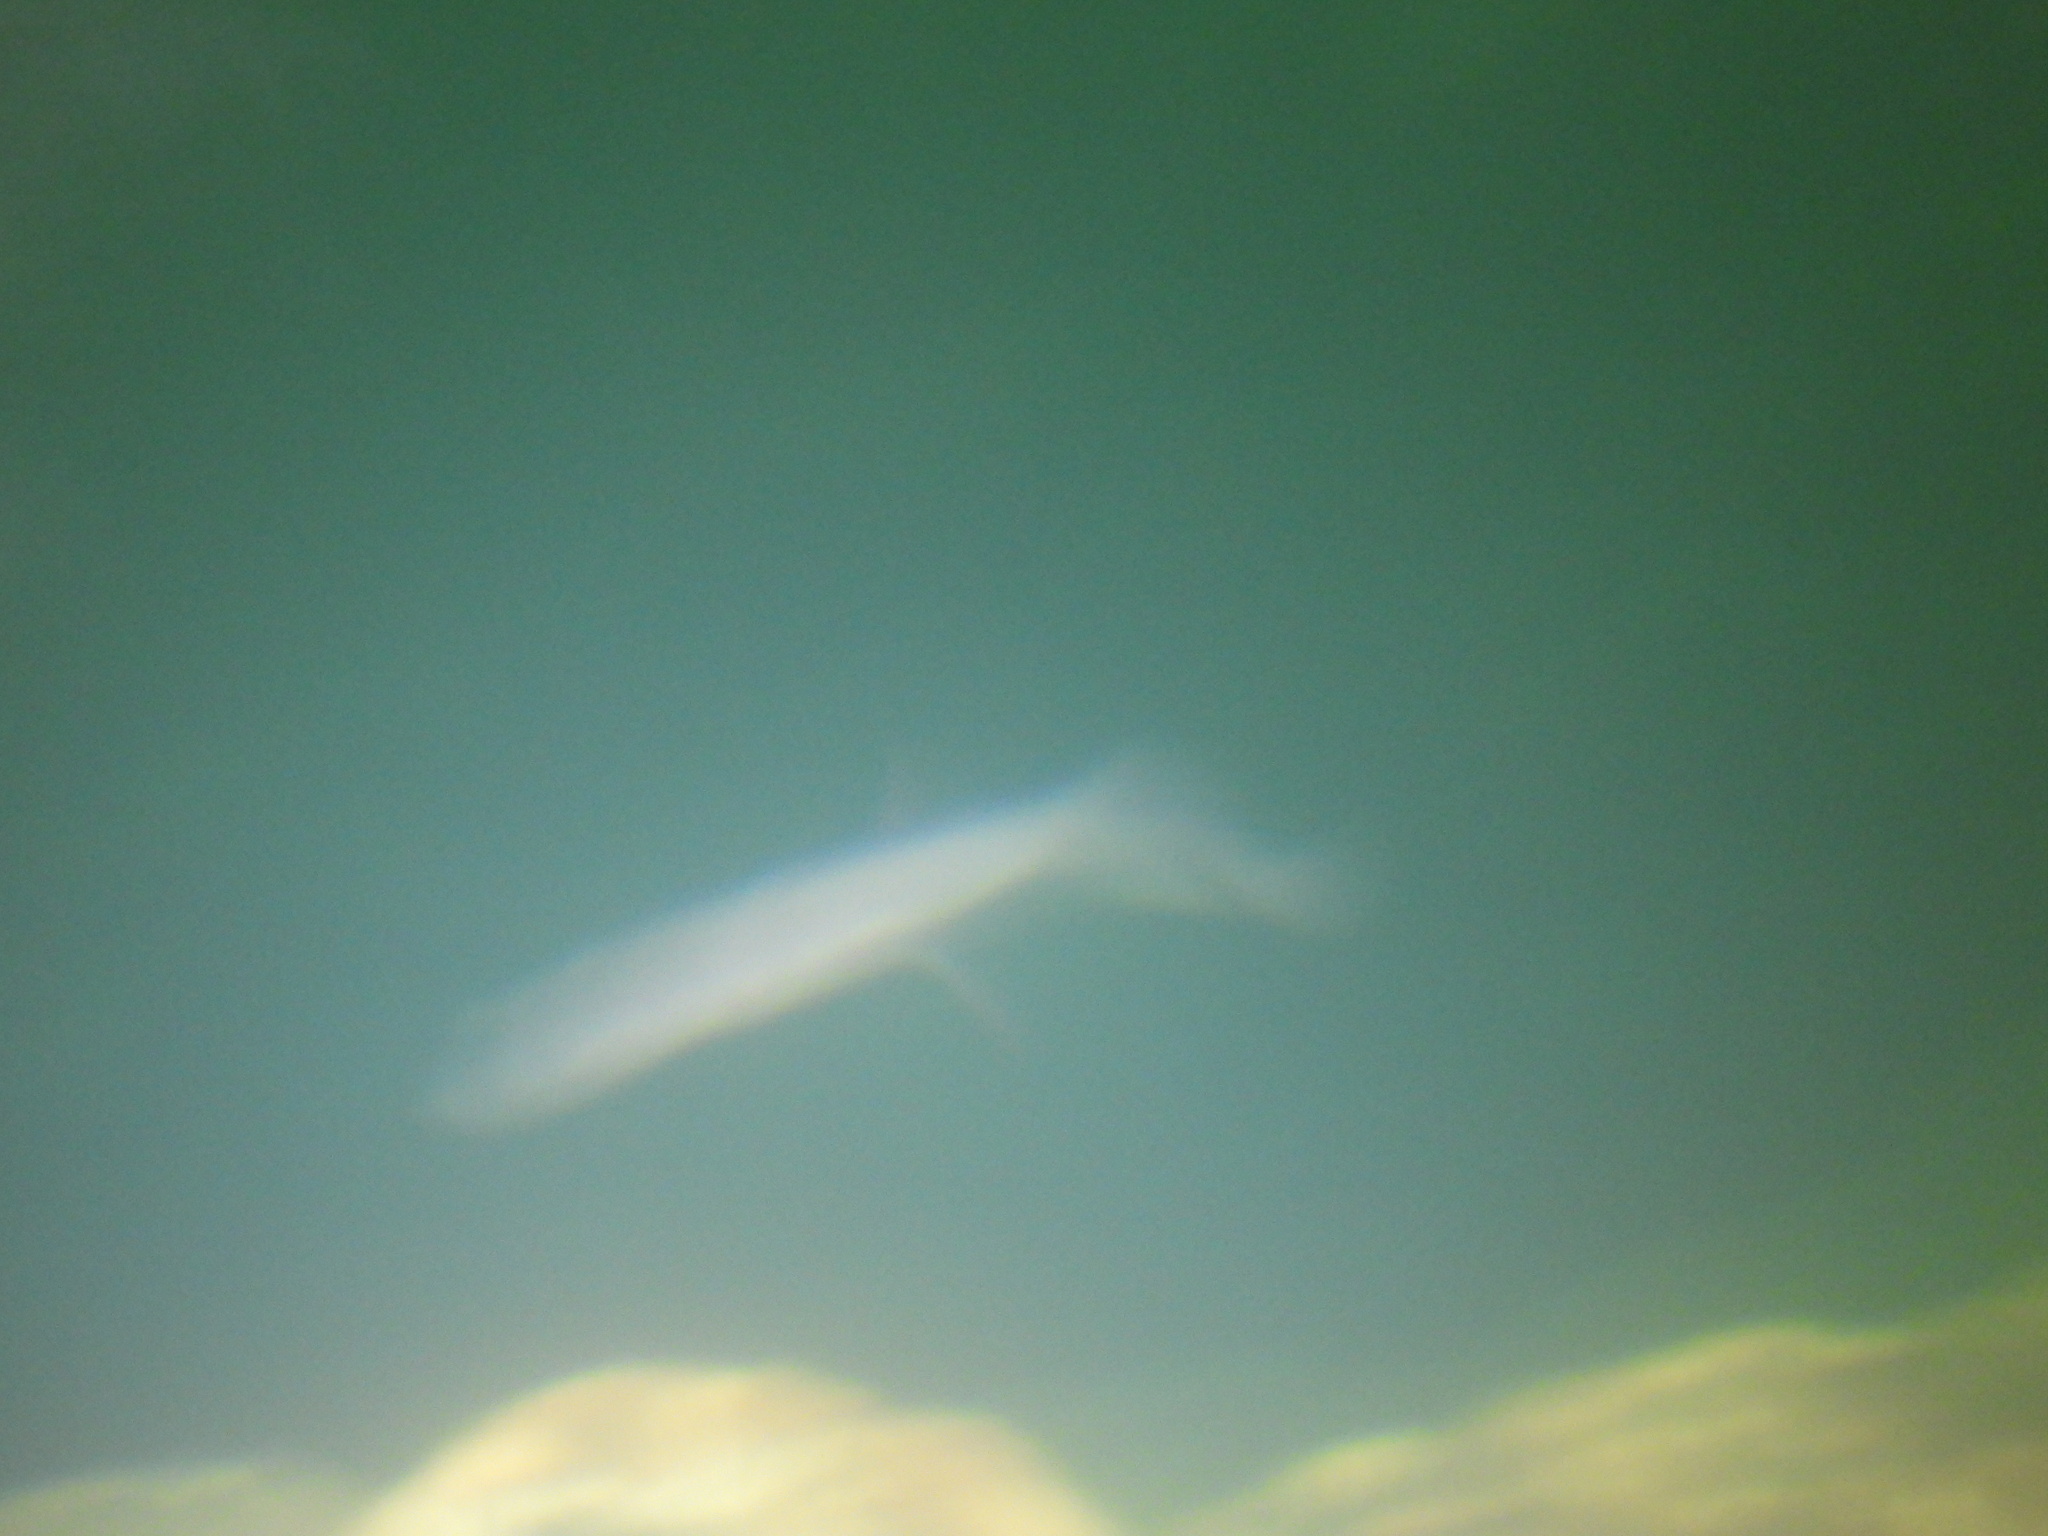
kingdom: Animalia
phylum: Chordata
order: Ophidiiformes
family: Bythitidae
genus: Typhliasina
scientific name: Typhliasina pearsei
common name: Dama ciega blanca
